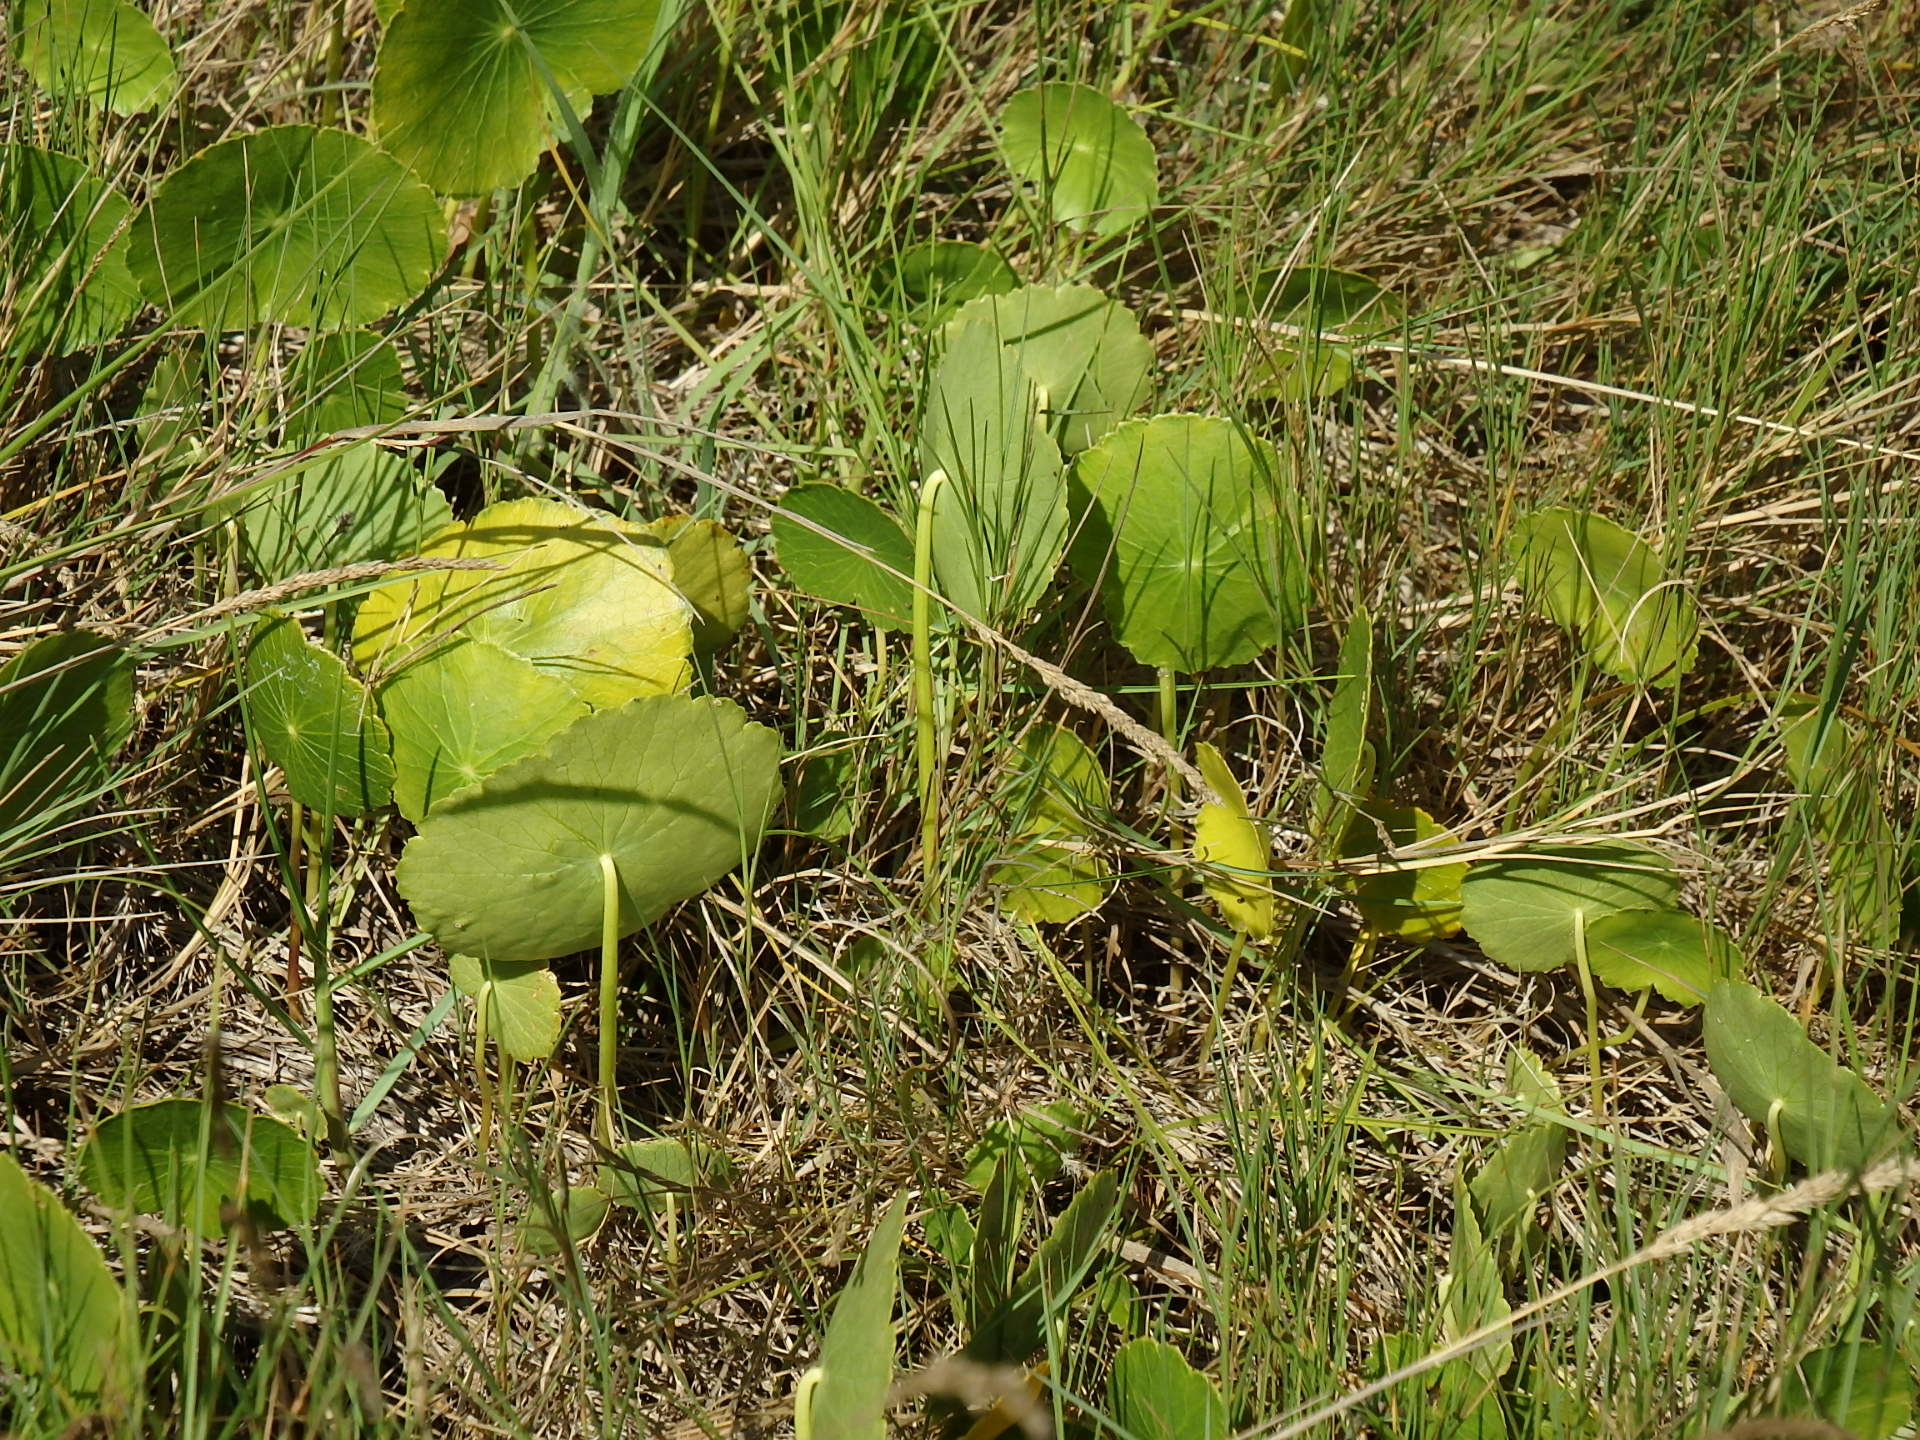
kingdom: Plantae
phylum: Tracheophyta
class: Magnoliopsida
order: Apiales
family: Araliaceae
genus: Hydrocotyle
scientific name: Hydrocotyle bonariensis
